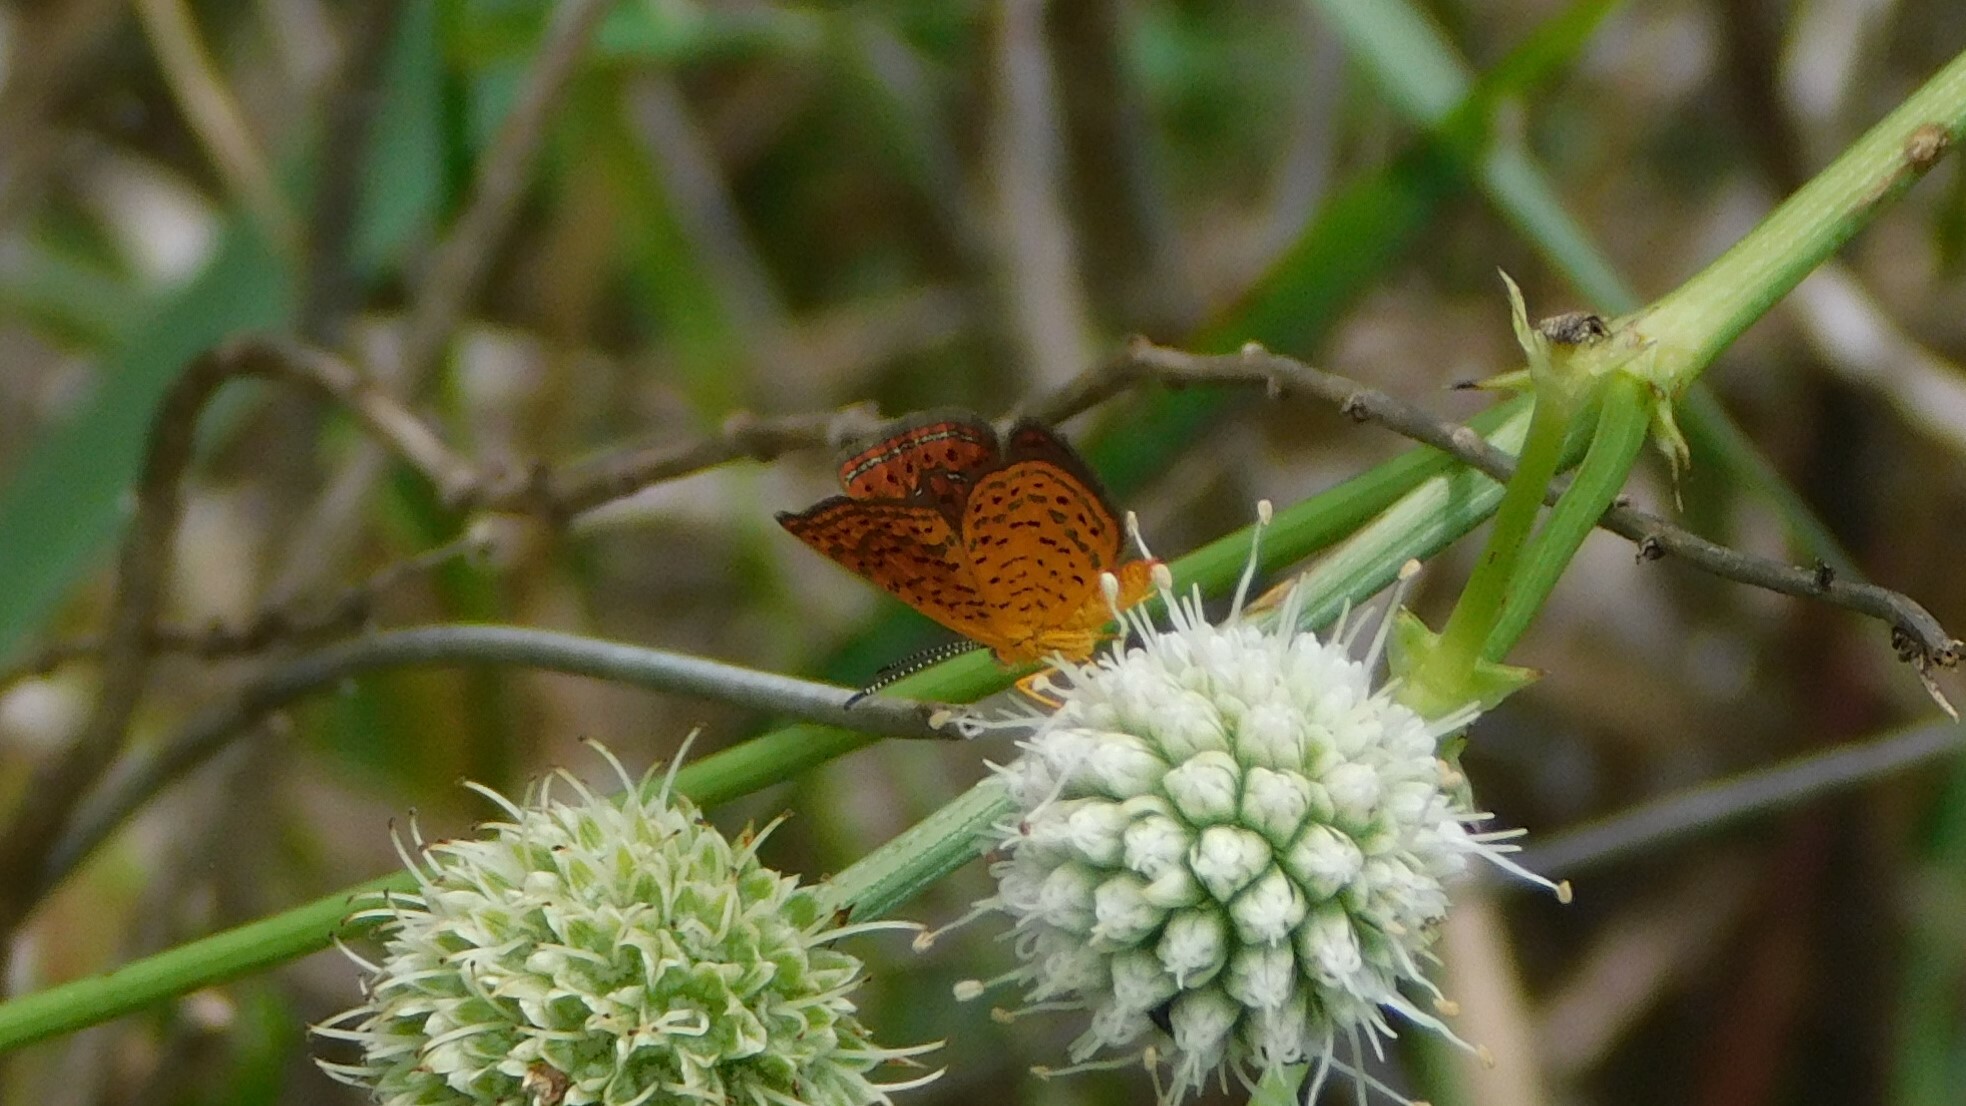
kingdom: Animalia
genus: Calephelis
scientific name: Calephelis virginiensis
